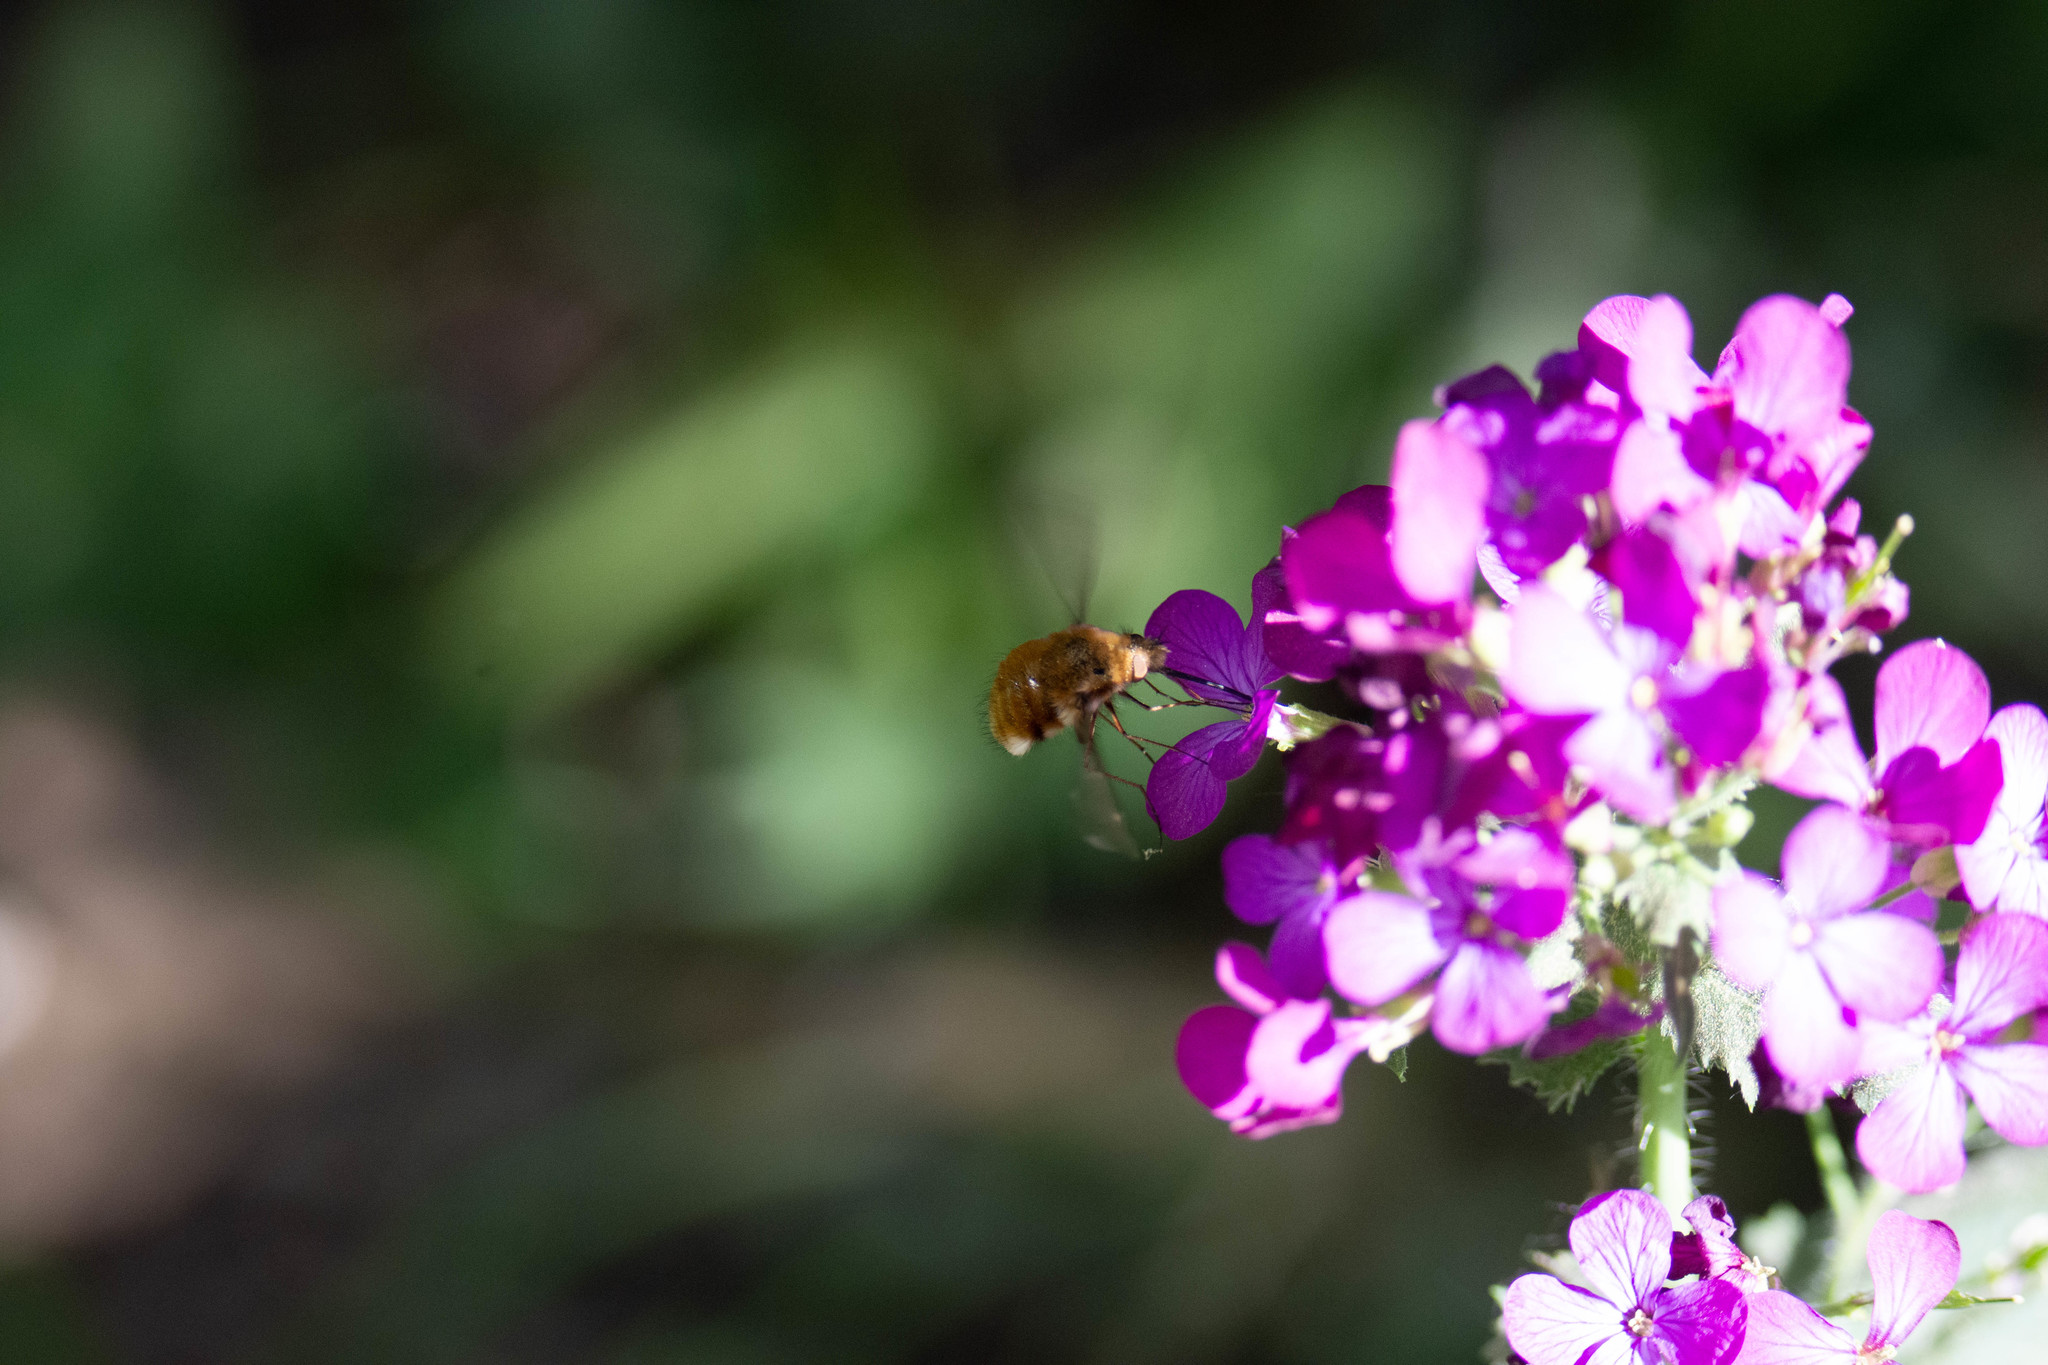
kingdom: Animalia
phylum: Arthropoda
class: Insecta
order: Diptera
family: Bombyliidae
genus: Bombylius
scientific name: Bombylius major
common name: Bee fly
